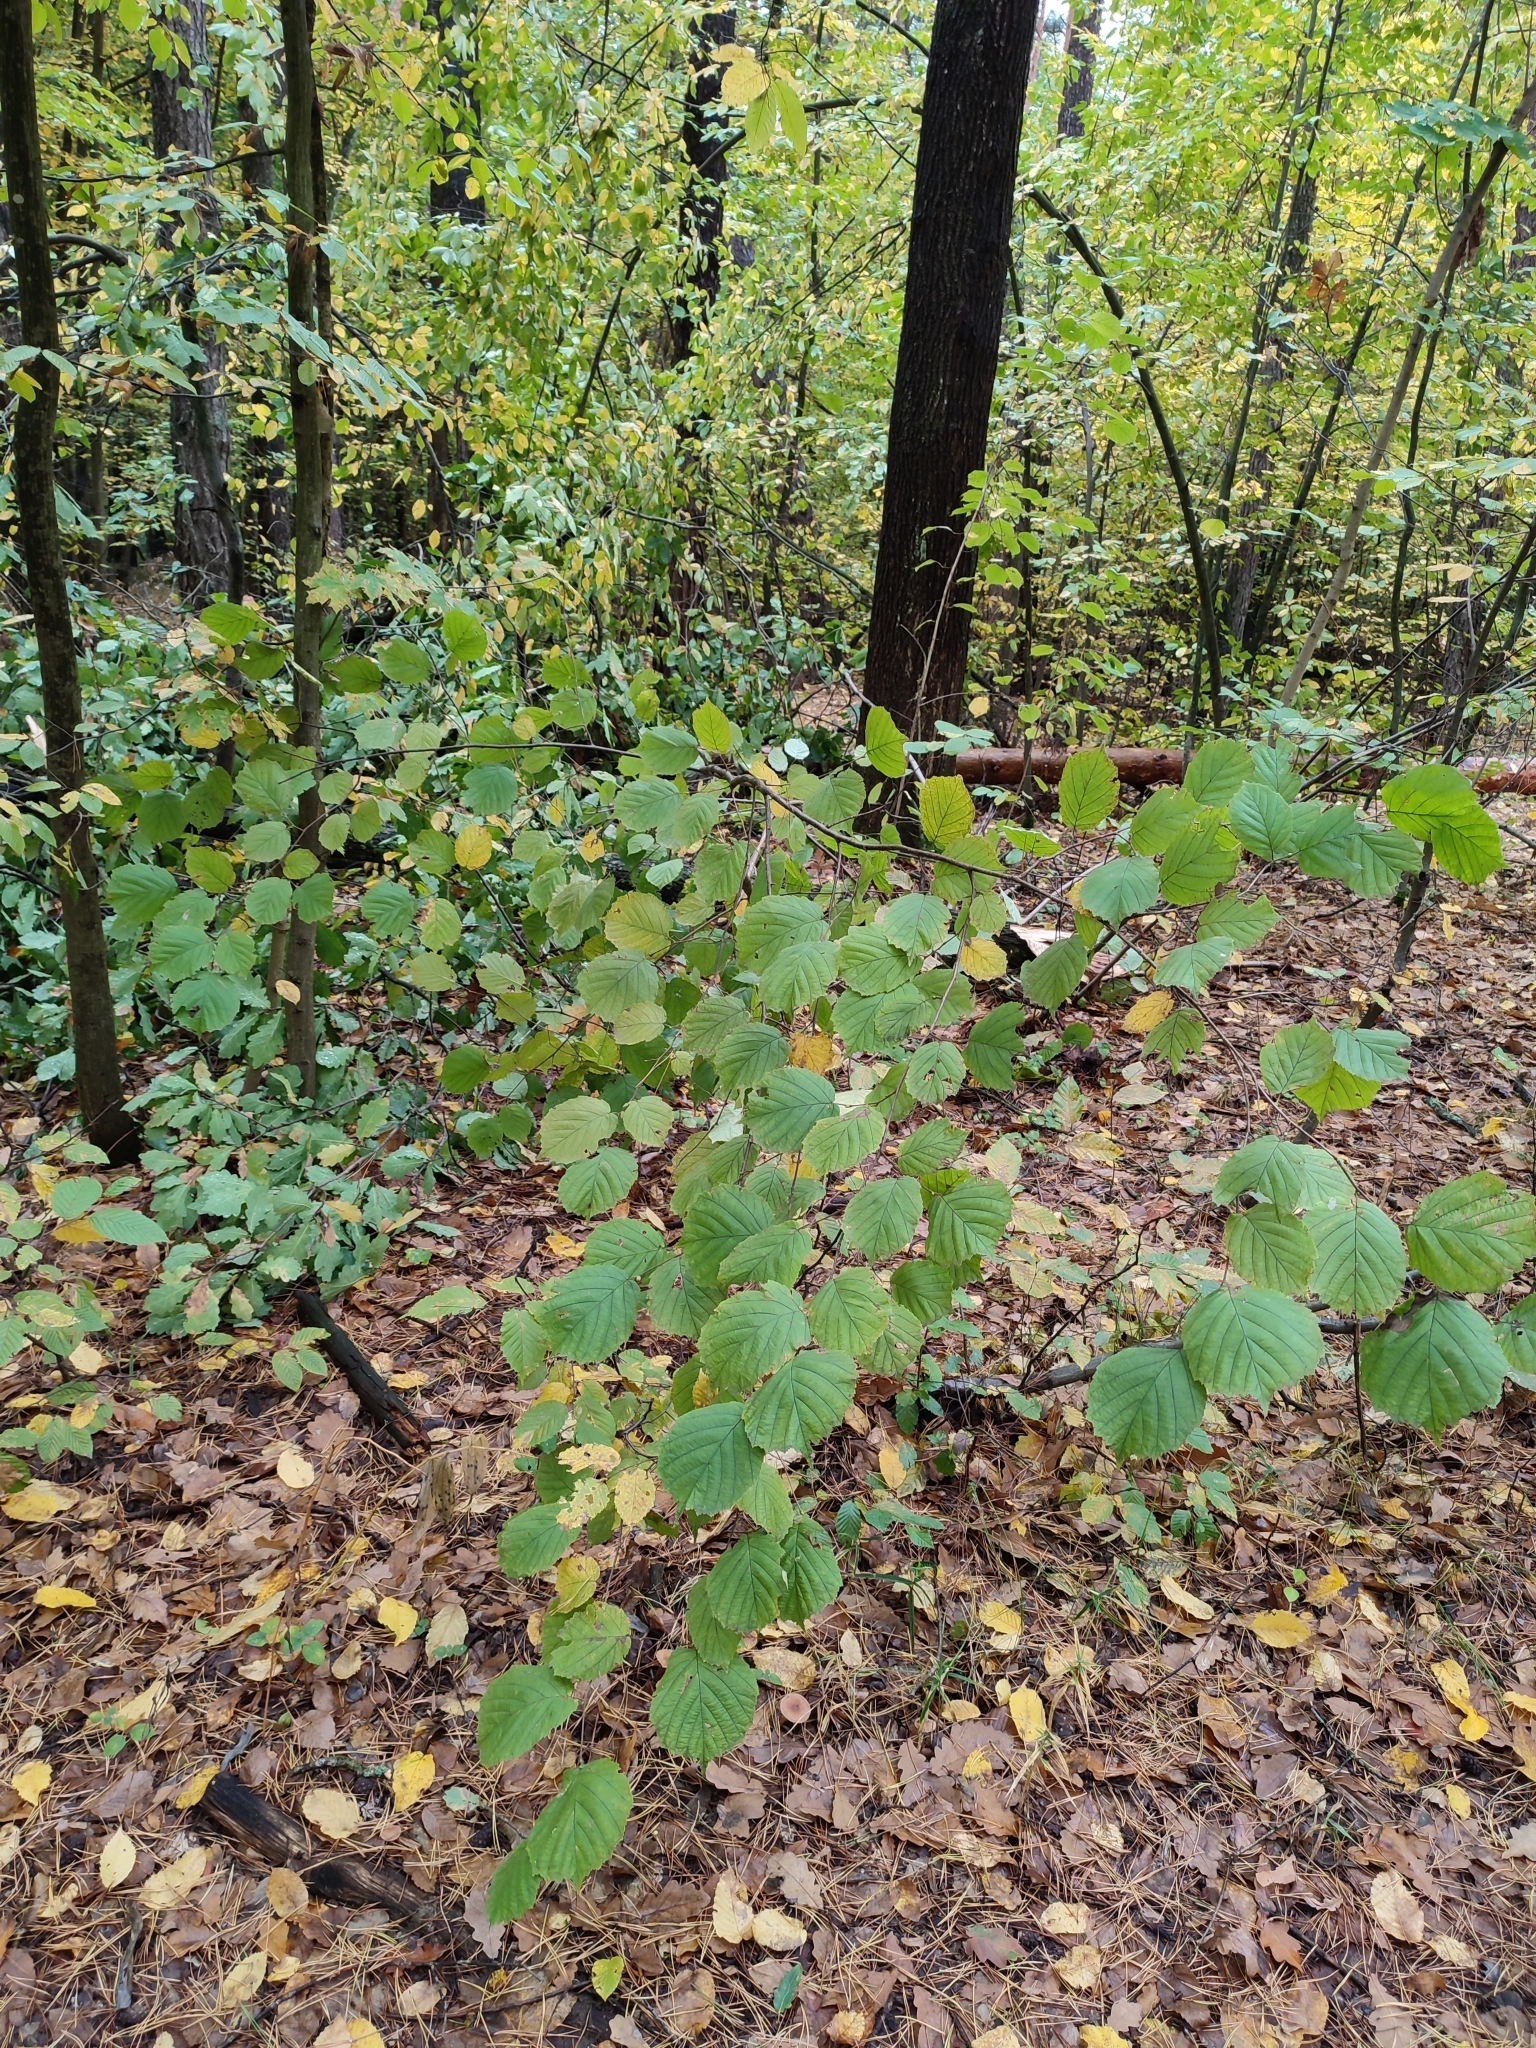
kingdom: Plantae
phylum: Tracheophyta
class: Magnoliopsida
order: Fagales
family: Betulaceae
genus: Corylus
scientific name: Corylus avellana
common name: European hazel
